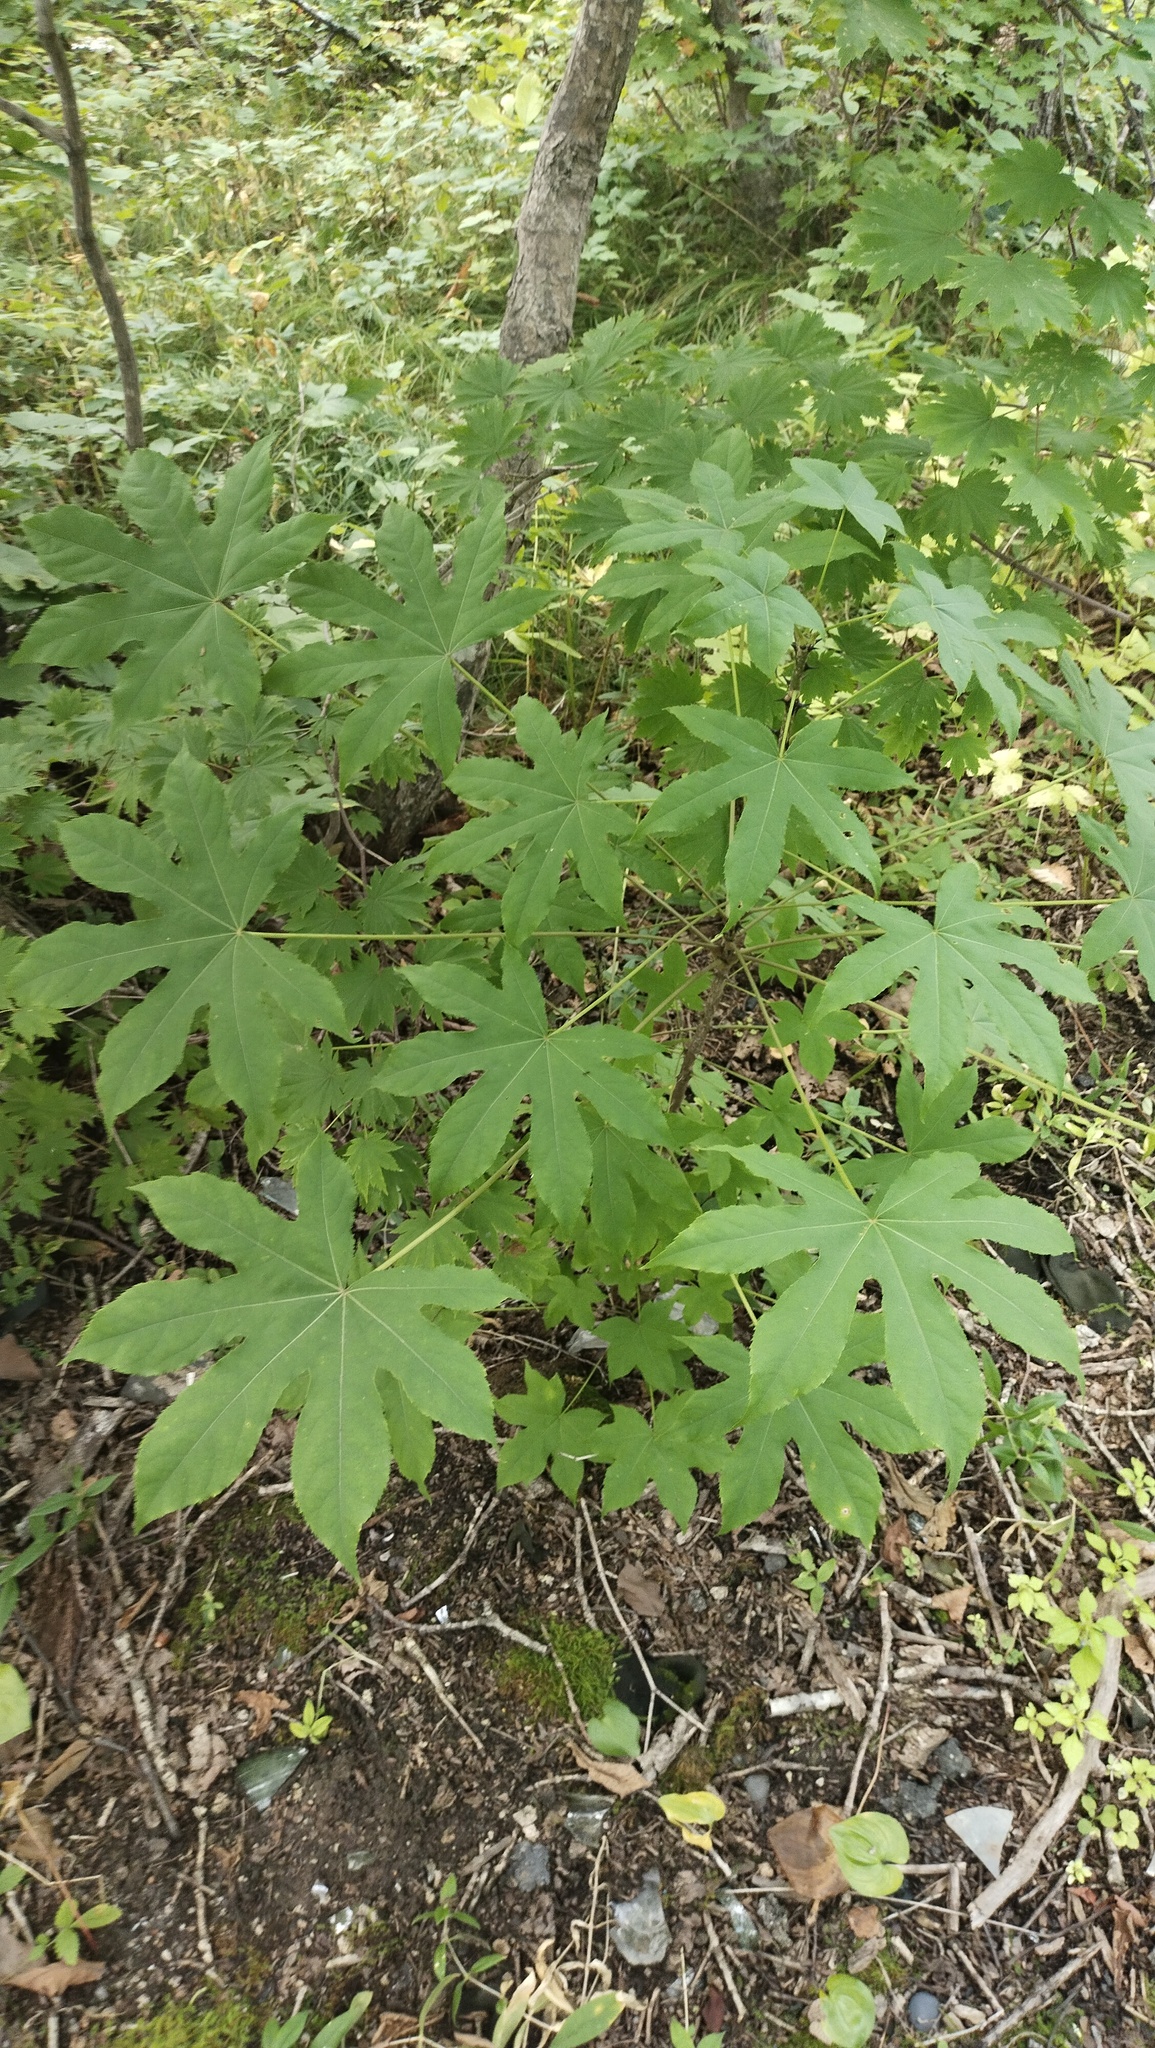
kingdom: Plantae
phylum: Tracheophyta
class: Magnoliopsida
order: Apiales
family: Araliaceae
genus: Kalopanax
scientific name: Kalopanax septemlobus
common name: Castor aralia
